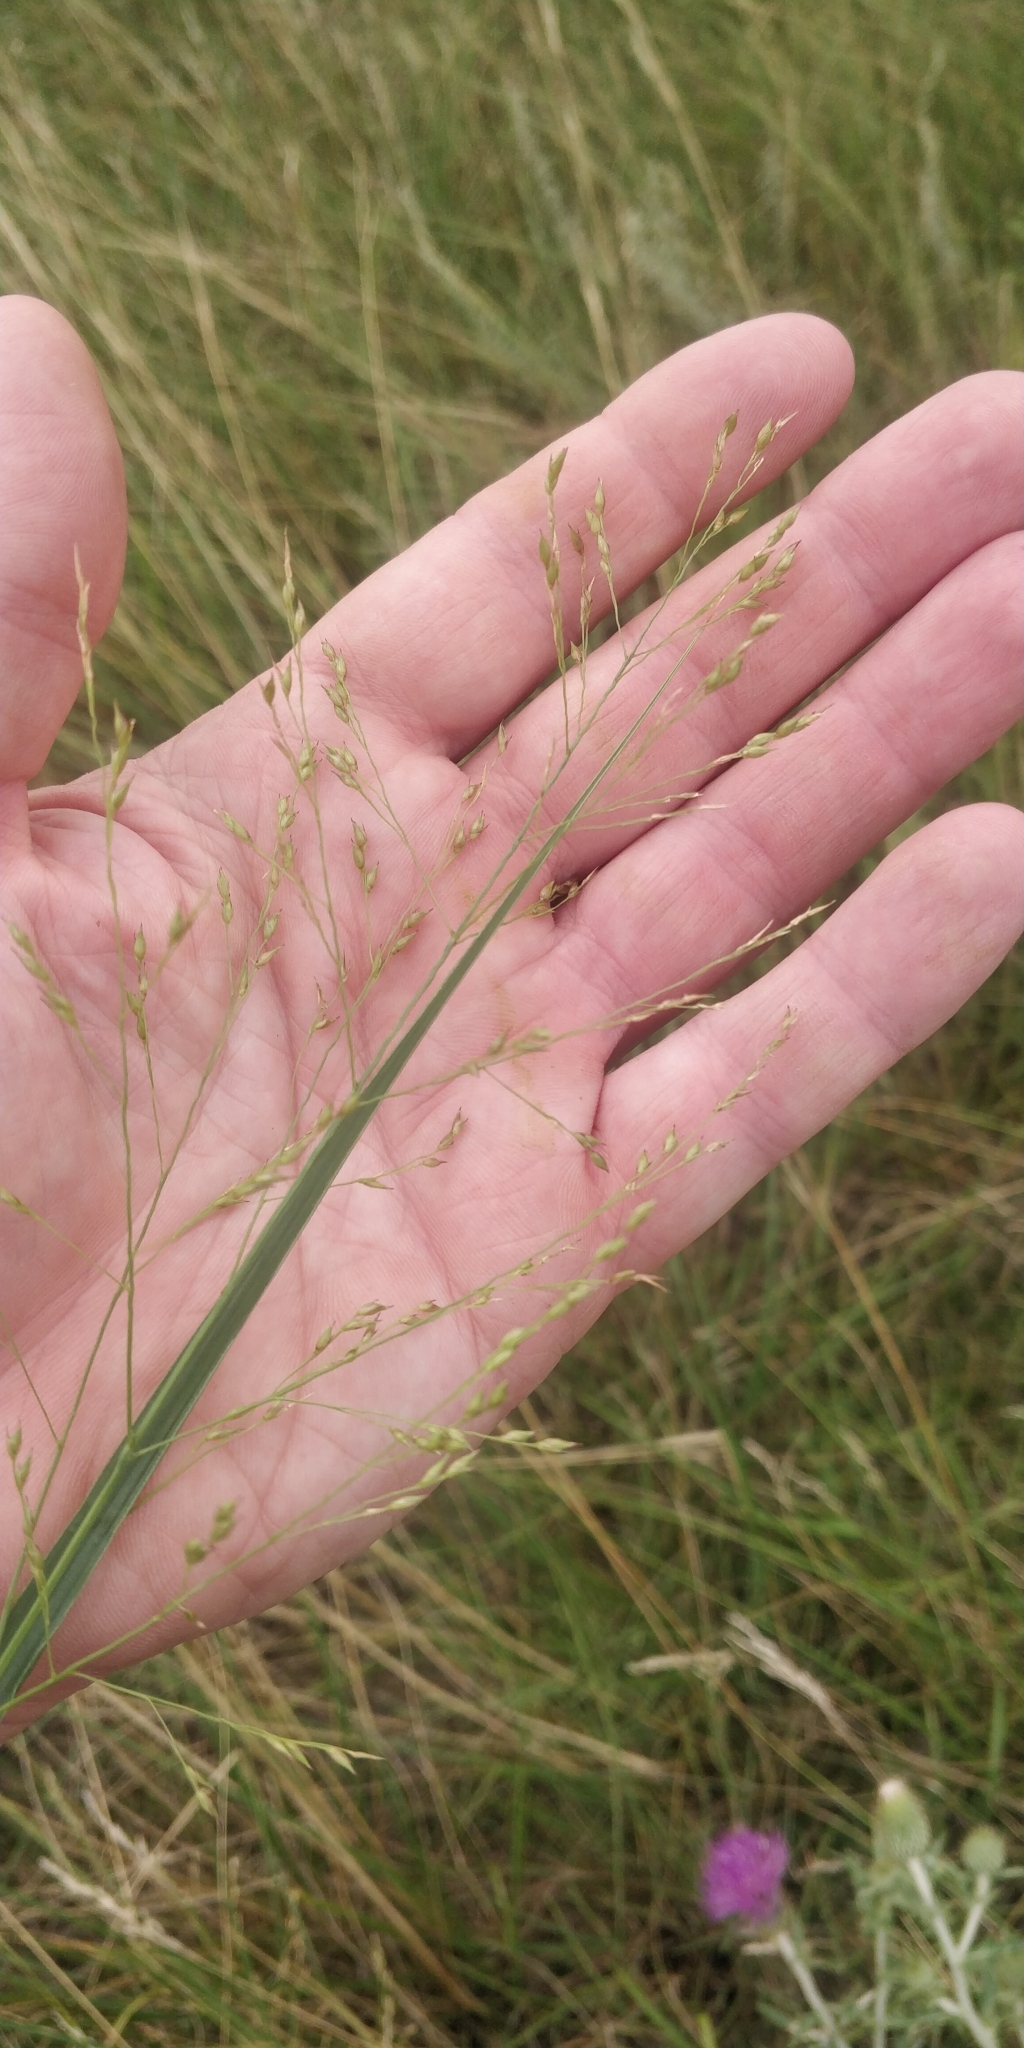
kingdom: Plantae
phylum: Tracheophyta
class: Liliopsida
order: Poales
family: Poaceae
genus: Panicum
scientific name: Panicum virgatum
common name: Switchgrass
